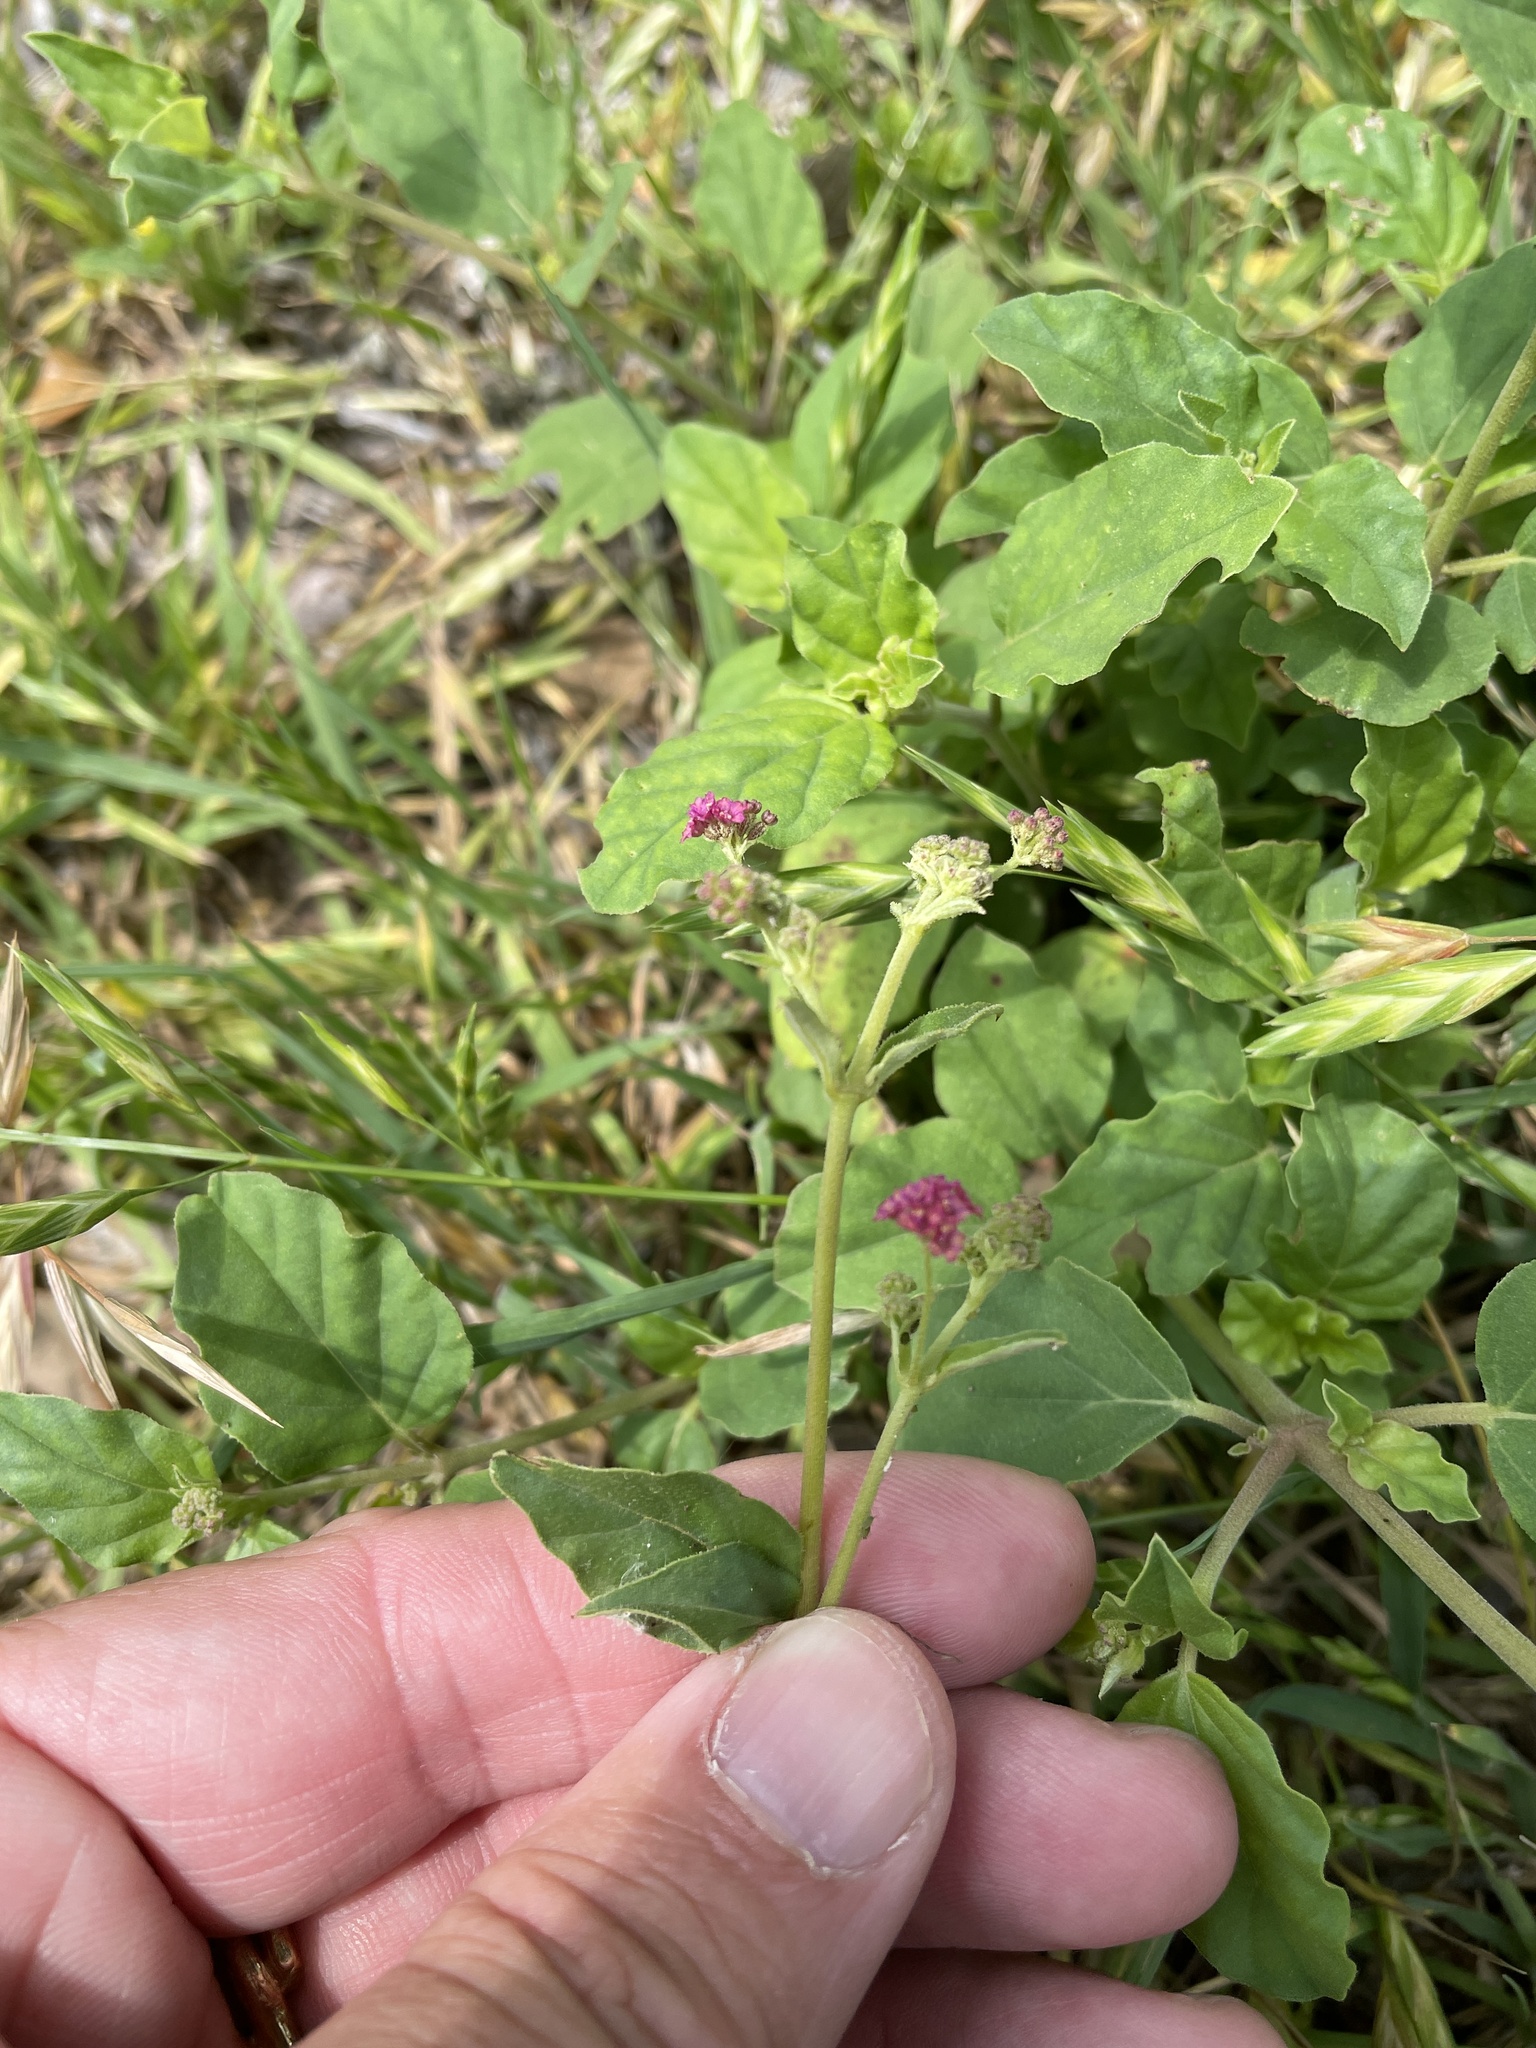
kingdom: Plantae
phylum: Tracheophyta
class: Magnoliopsida
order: Caryophyllales
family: Nyctaginaceae
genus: Boerhavia
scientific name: Boerhavia coccinea
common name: Scarlet spiderling
